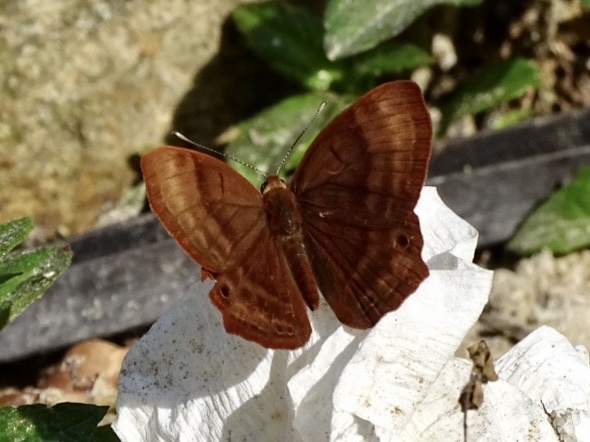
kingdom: Animalia
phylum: Arthropoda
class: Insecta
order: Lepidoptera
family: Lycaenidae
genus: Abisara
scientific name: Abisara echeria
